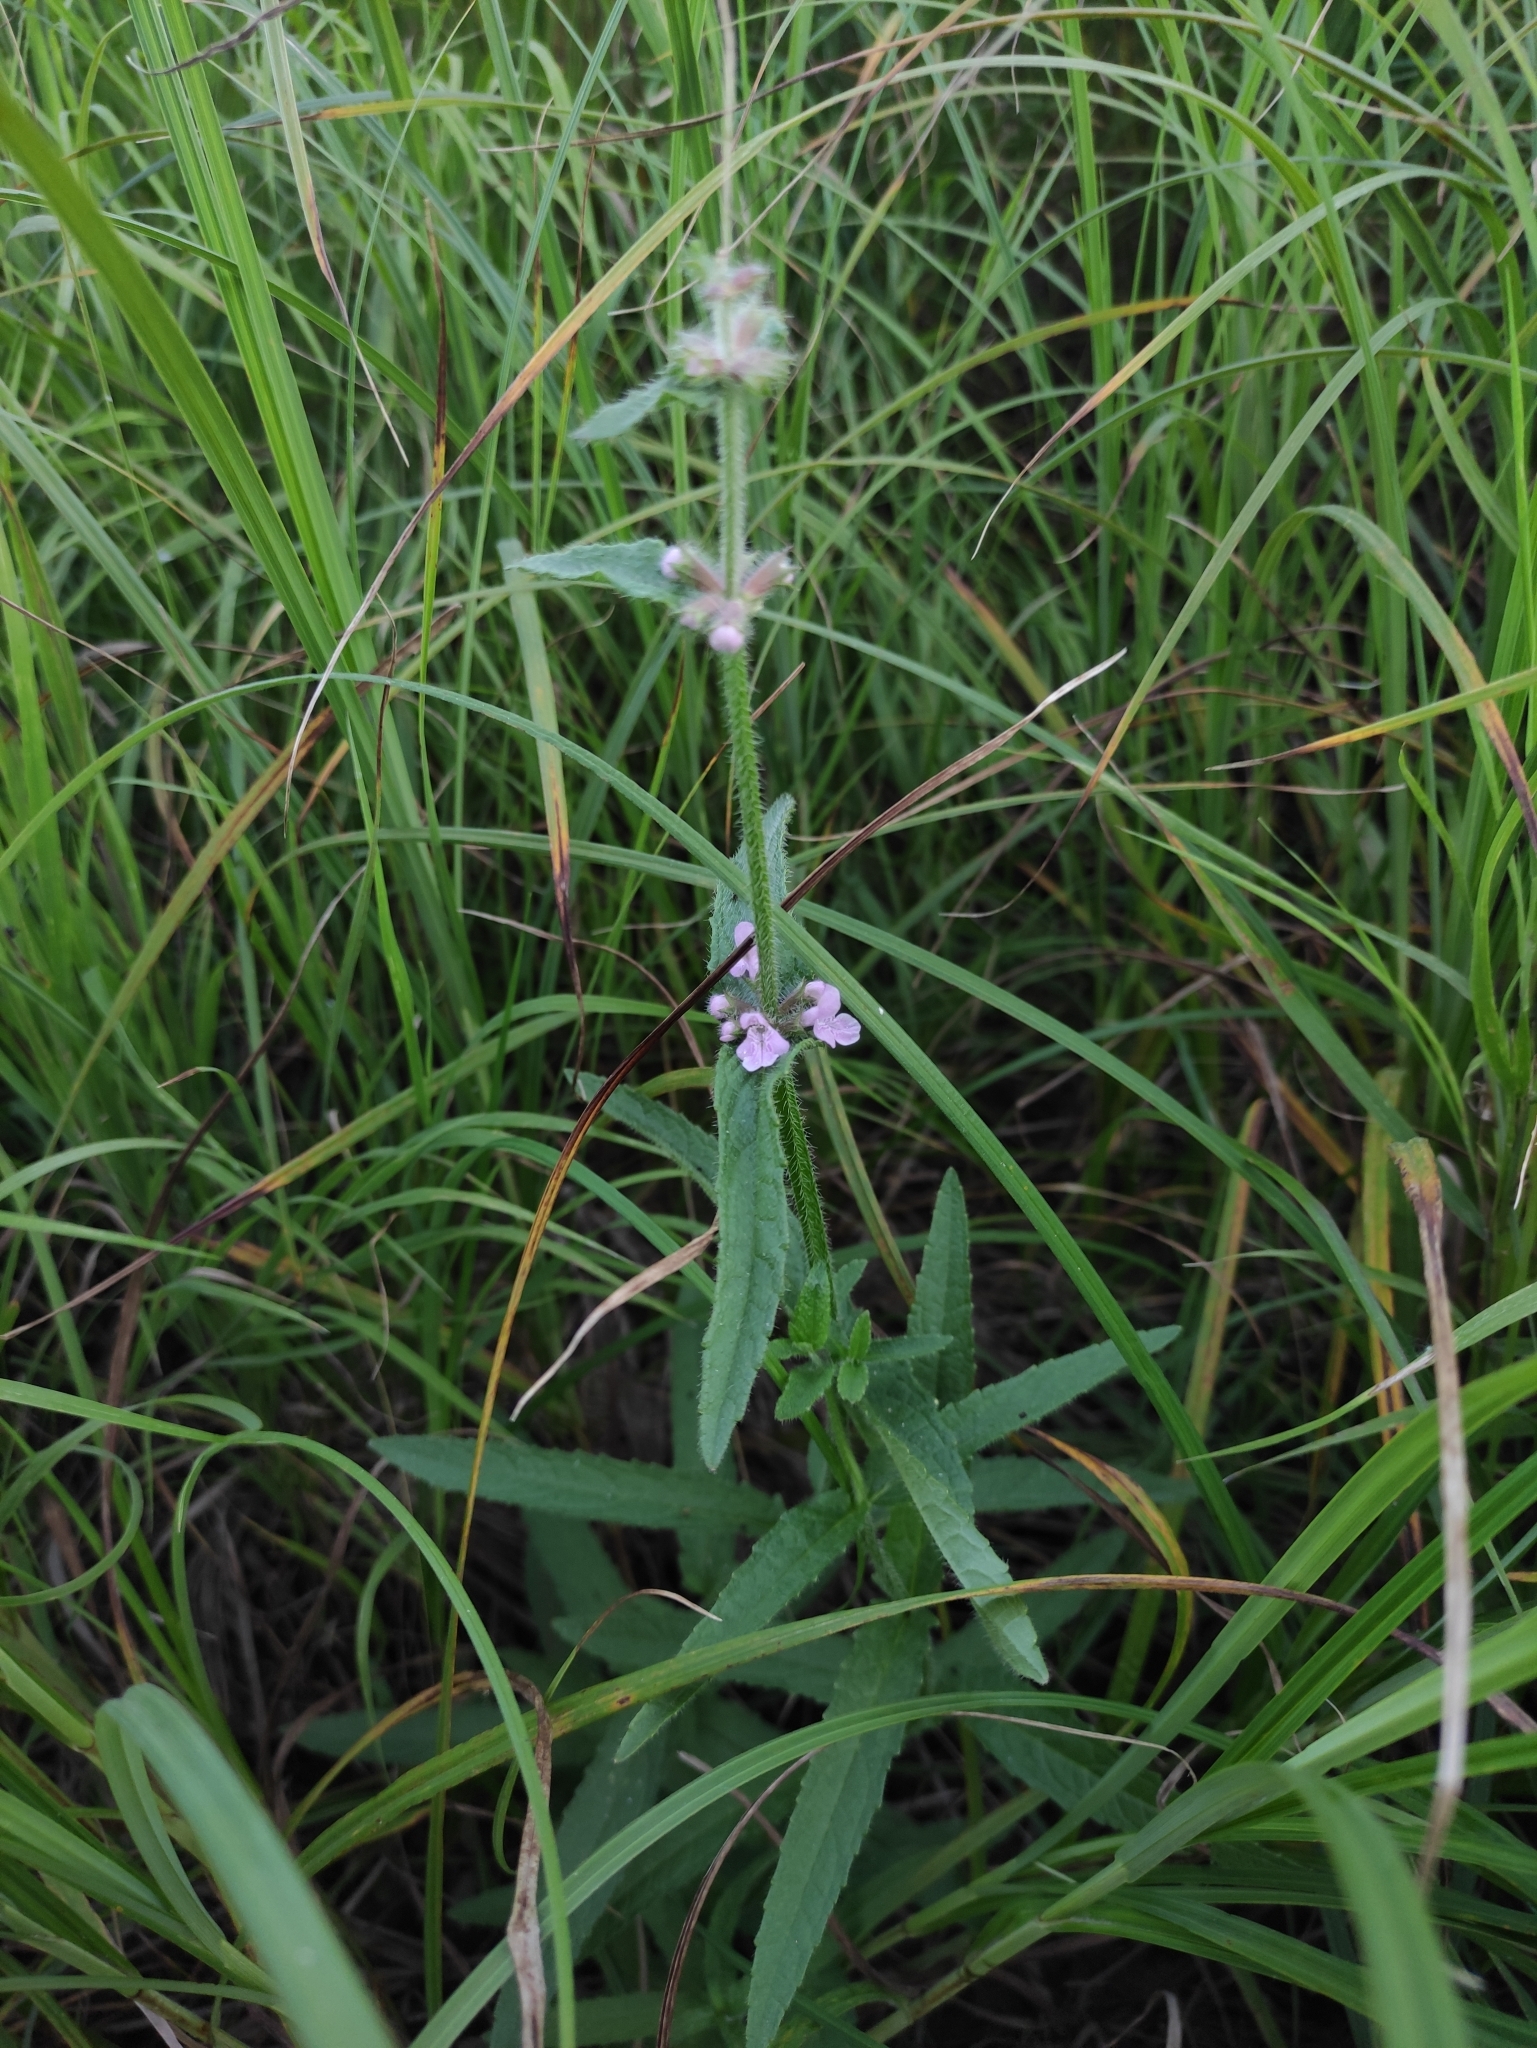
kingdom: Plantae
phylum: Tracheophyta
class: Magnoliopsida
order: Lamiales
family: Lamiaceae
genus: Stachys
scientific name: Stachys aspera
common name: Hyssopleaf hedgenettle
